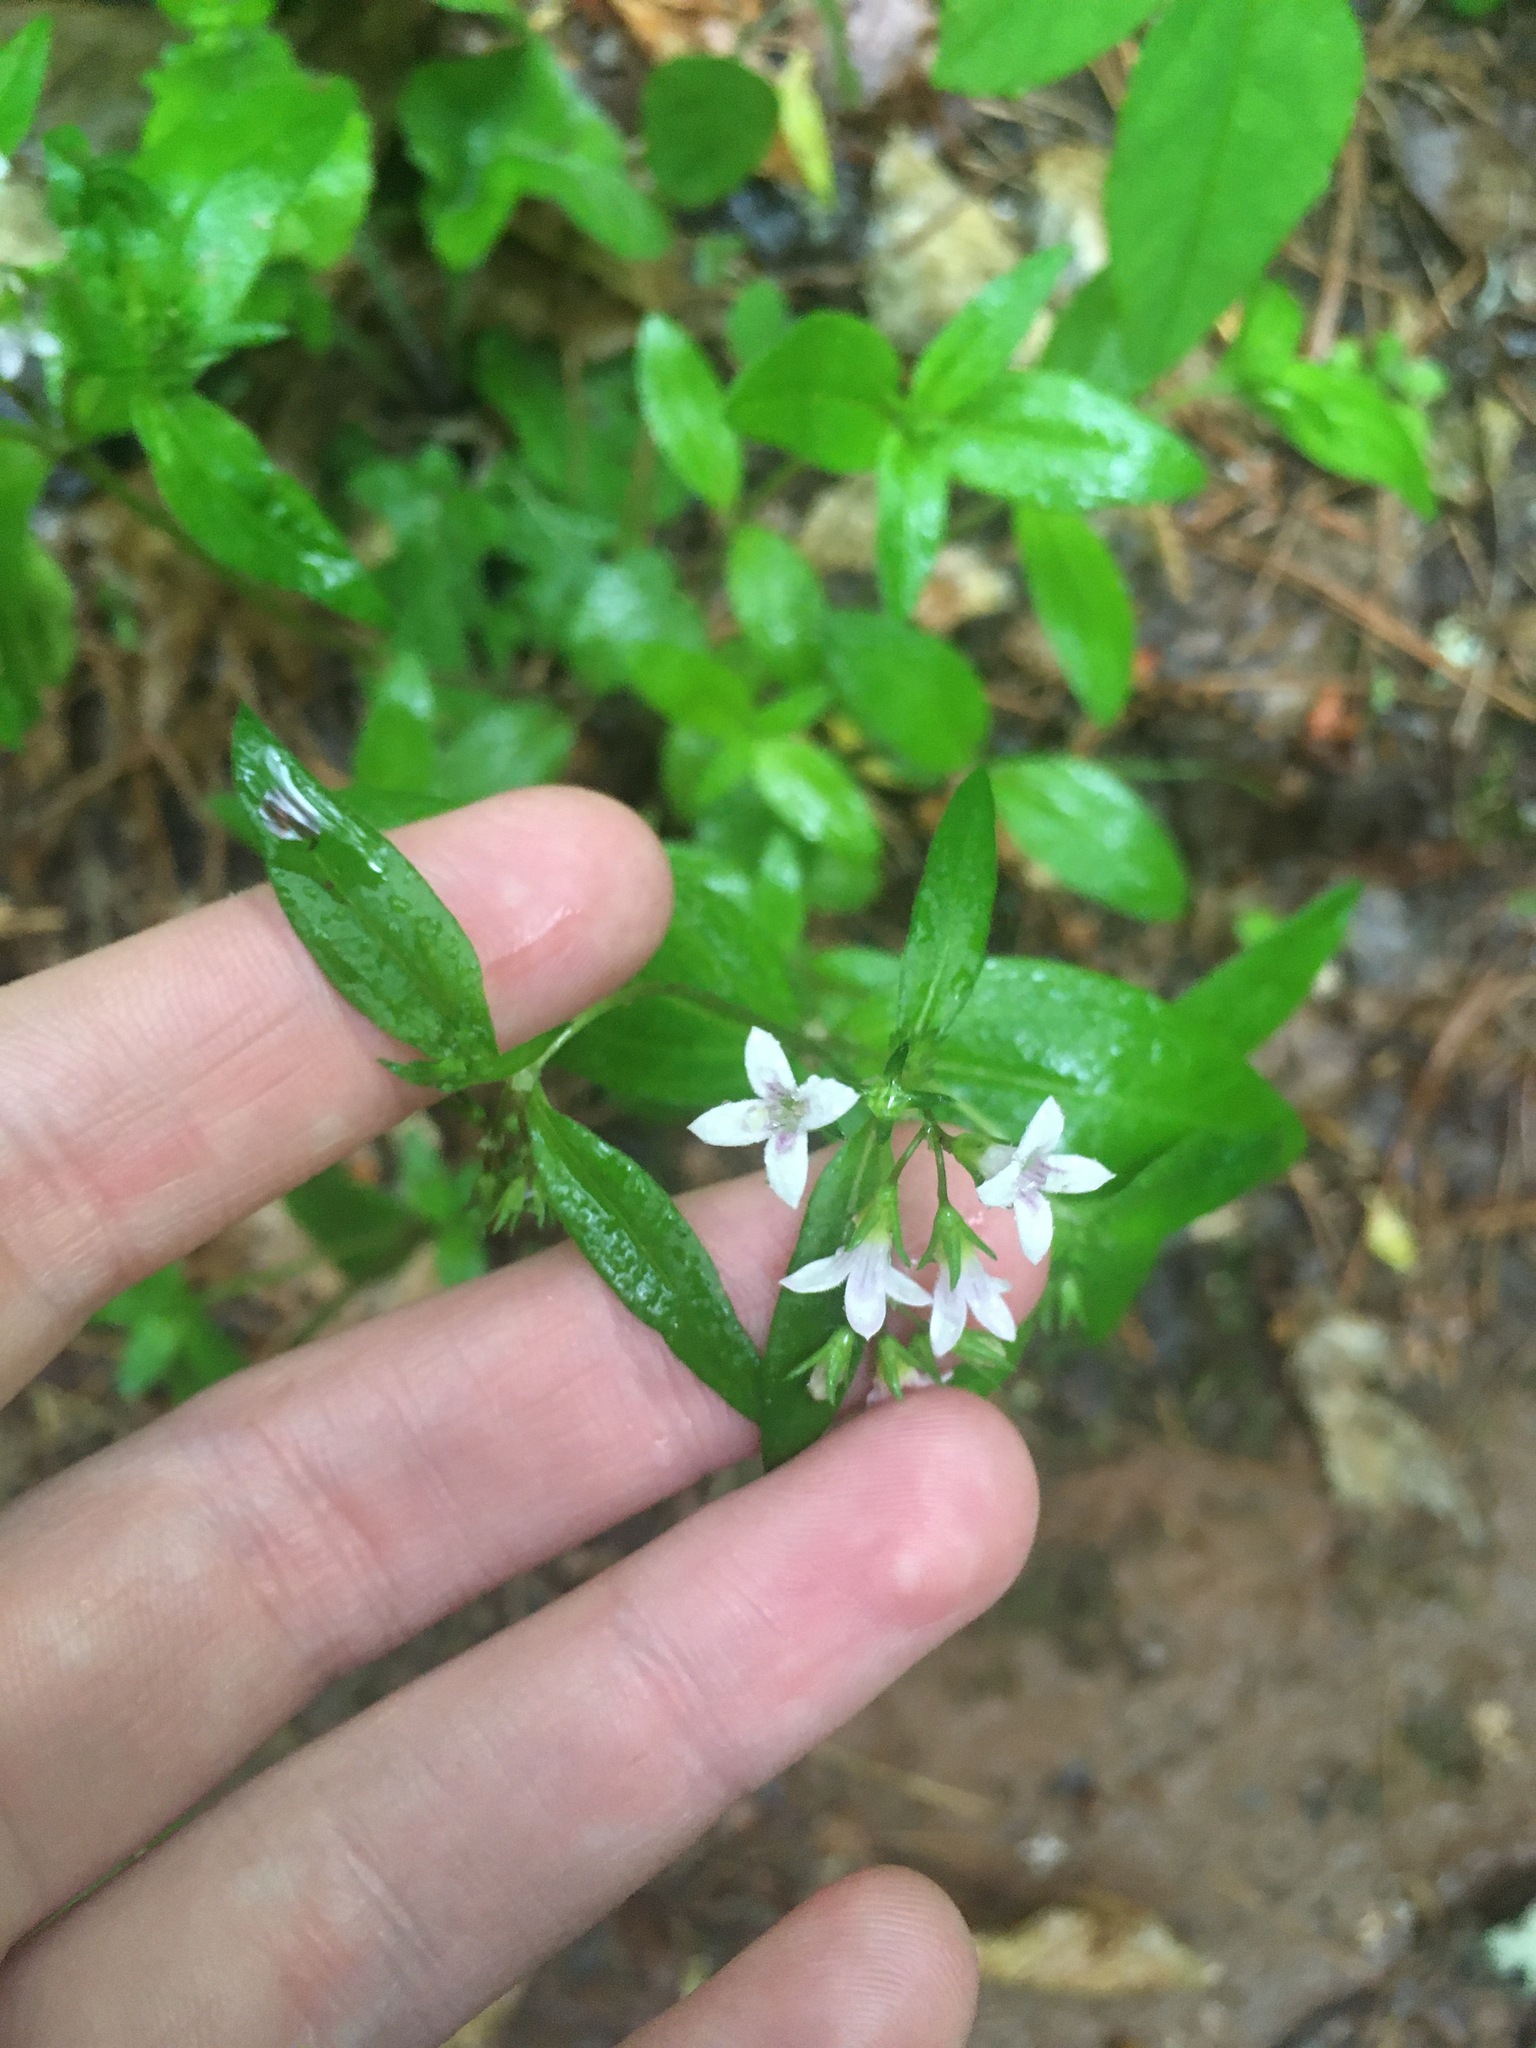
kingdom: Plantae
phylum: Tracheophyta
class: Magnoliopsida
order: Gentianales
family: Rubiaceae
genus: Houstonia
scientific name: Houstonia purpurea
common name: Summer bluet
